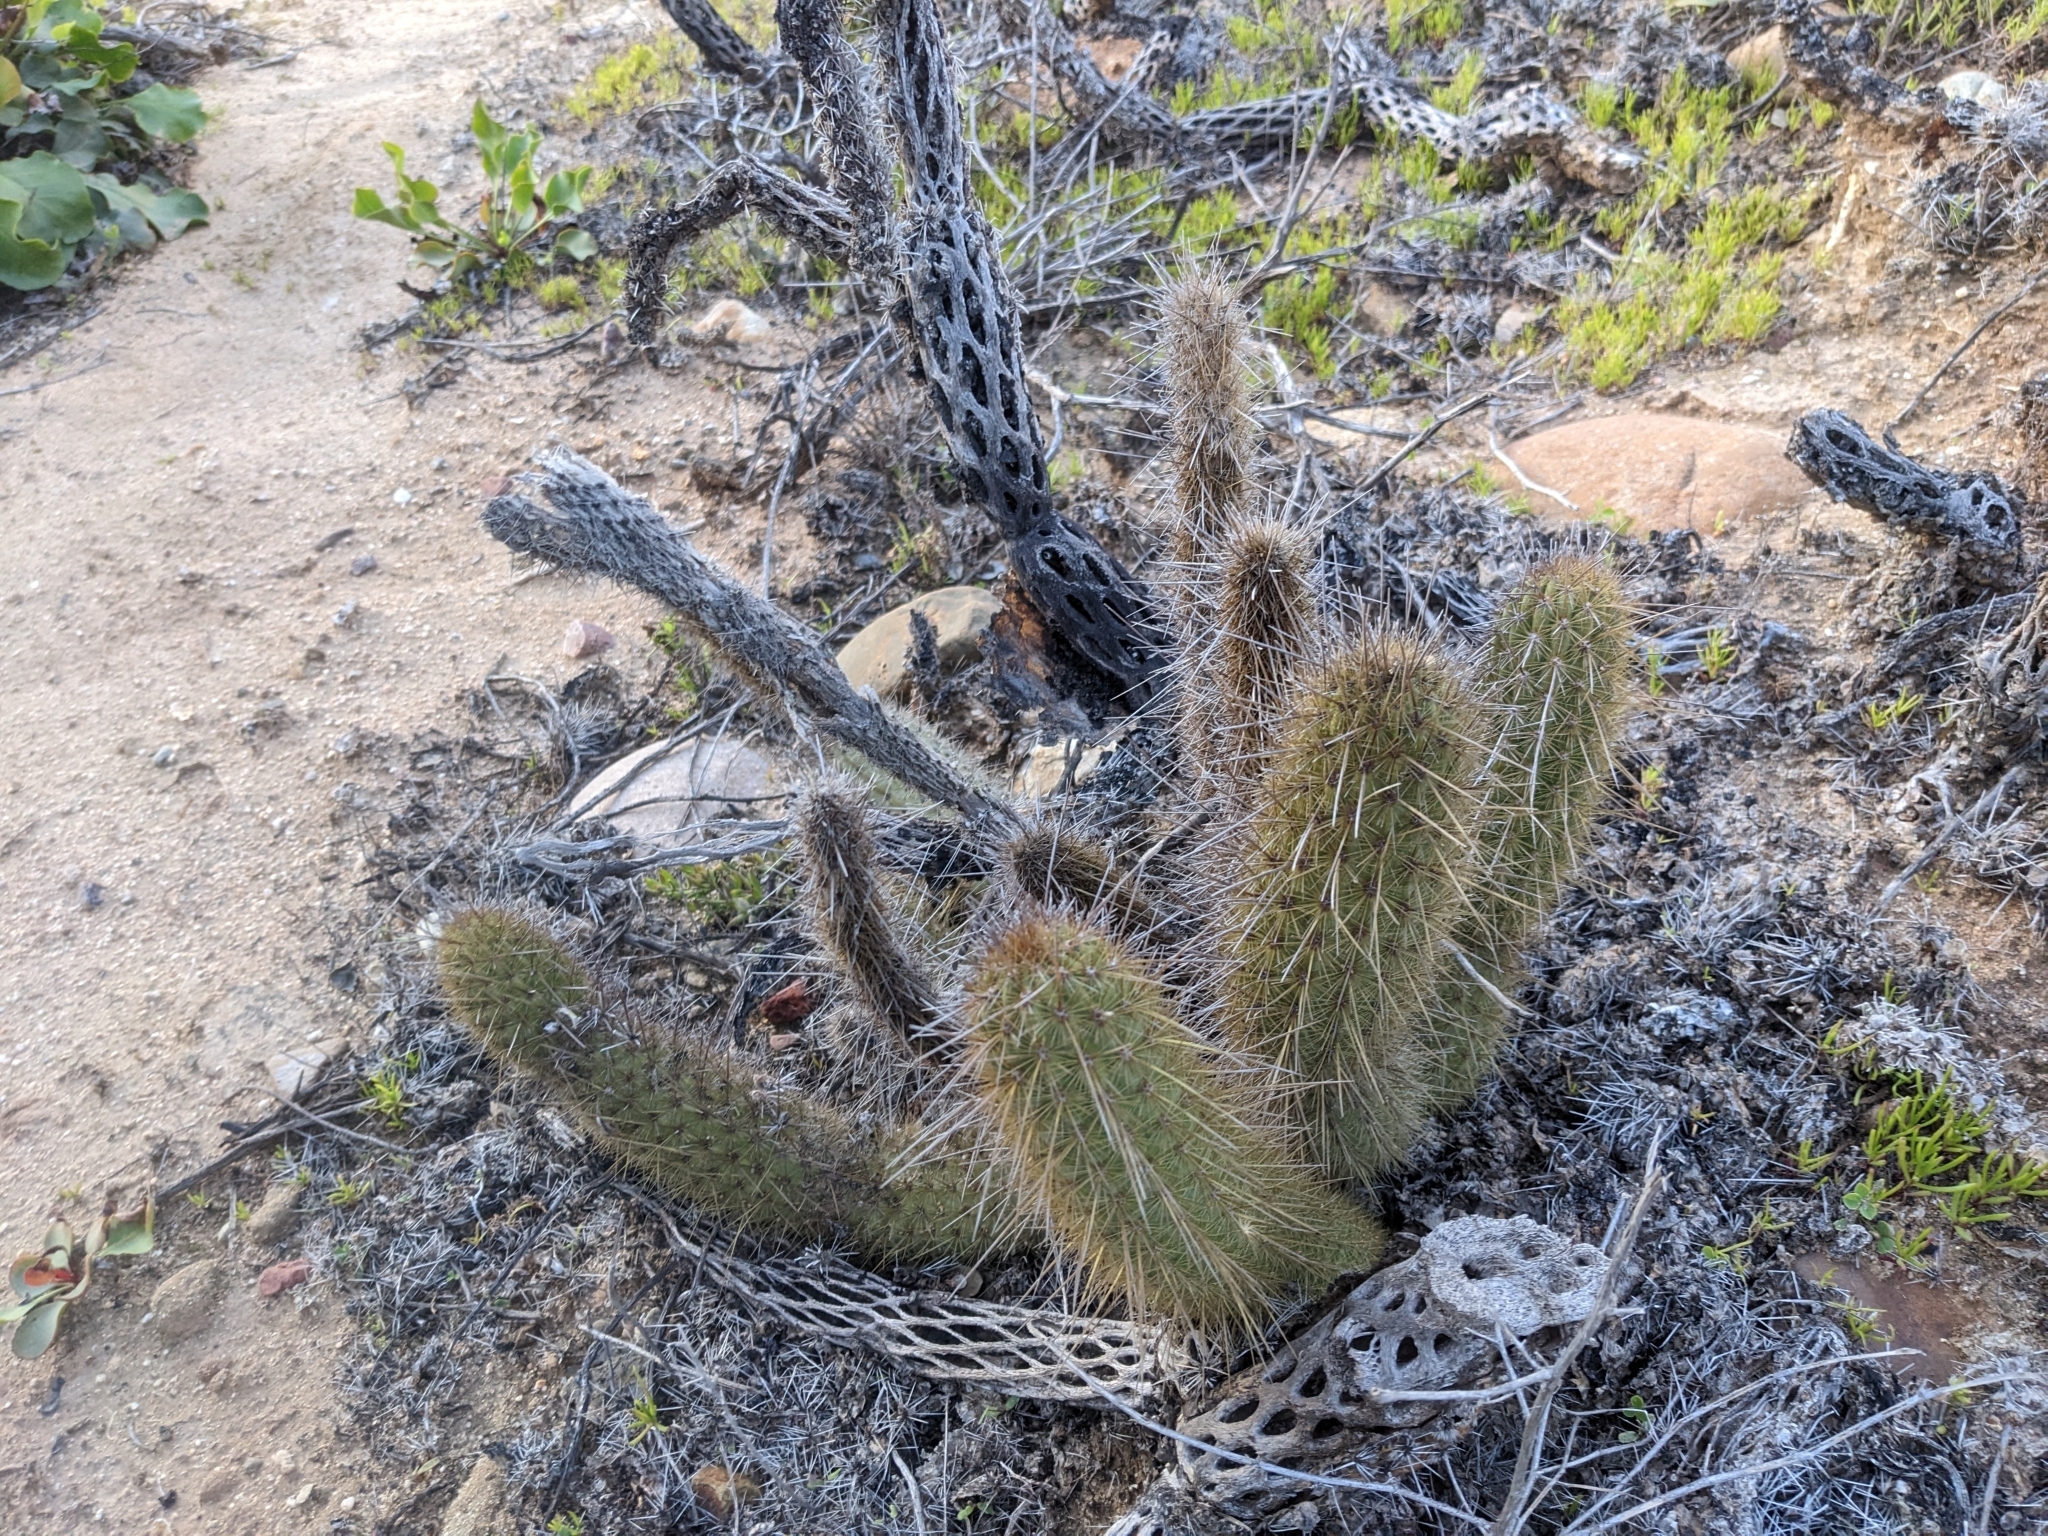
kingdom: Plantae
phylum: Tracheophyta
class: Magnoliopsida
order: Caryophyllales
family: Cactaceae
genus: Bergerocactus
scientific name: Bergerocactus emoryi
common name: Golden snakecactus
